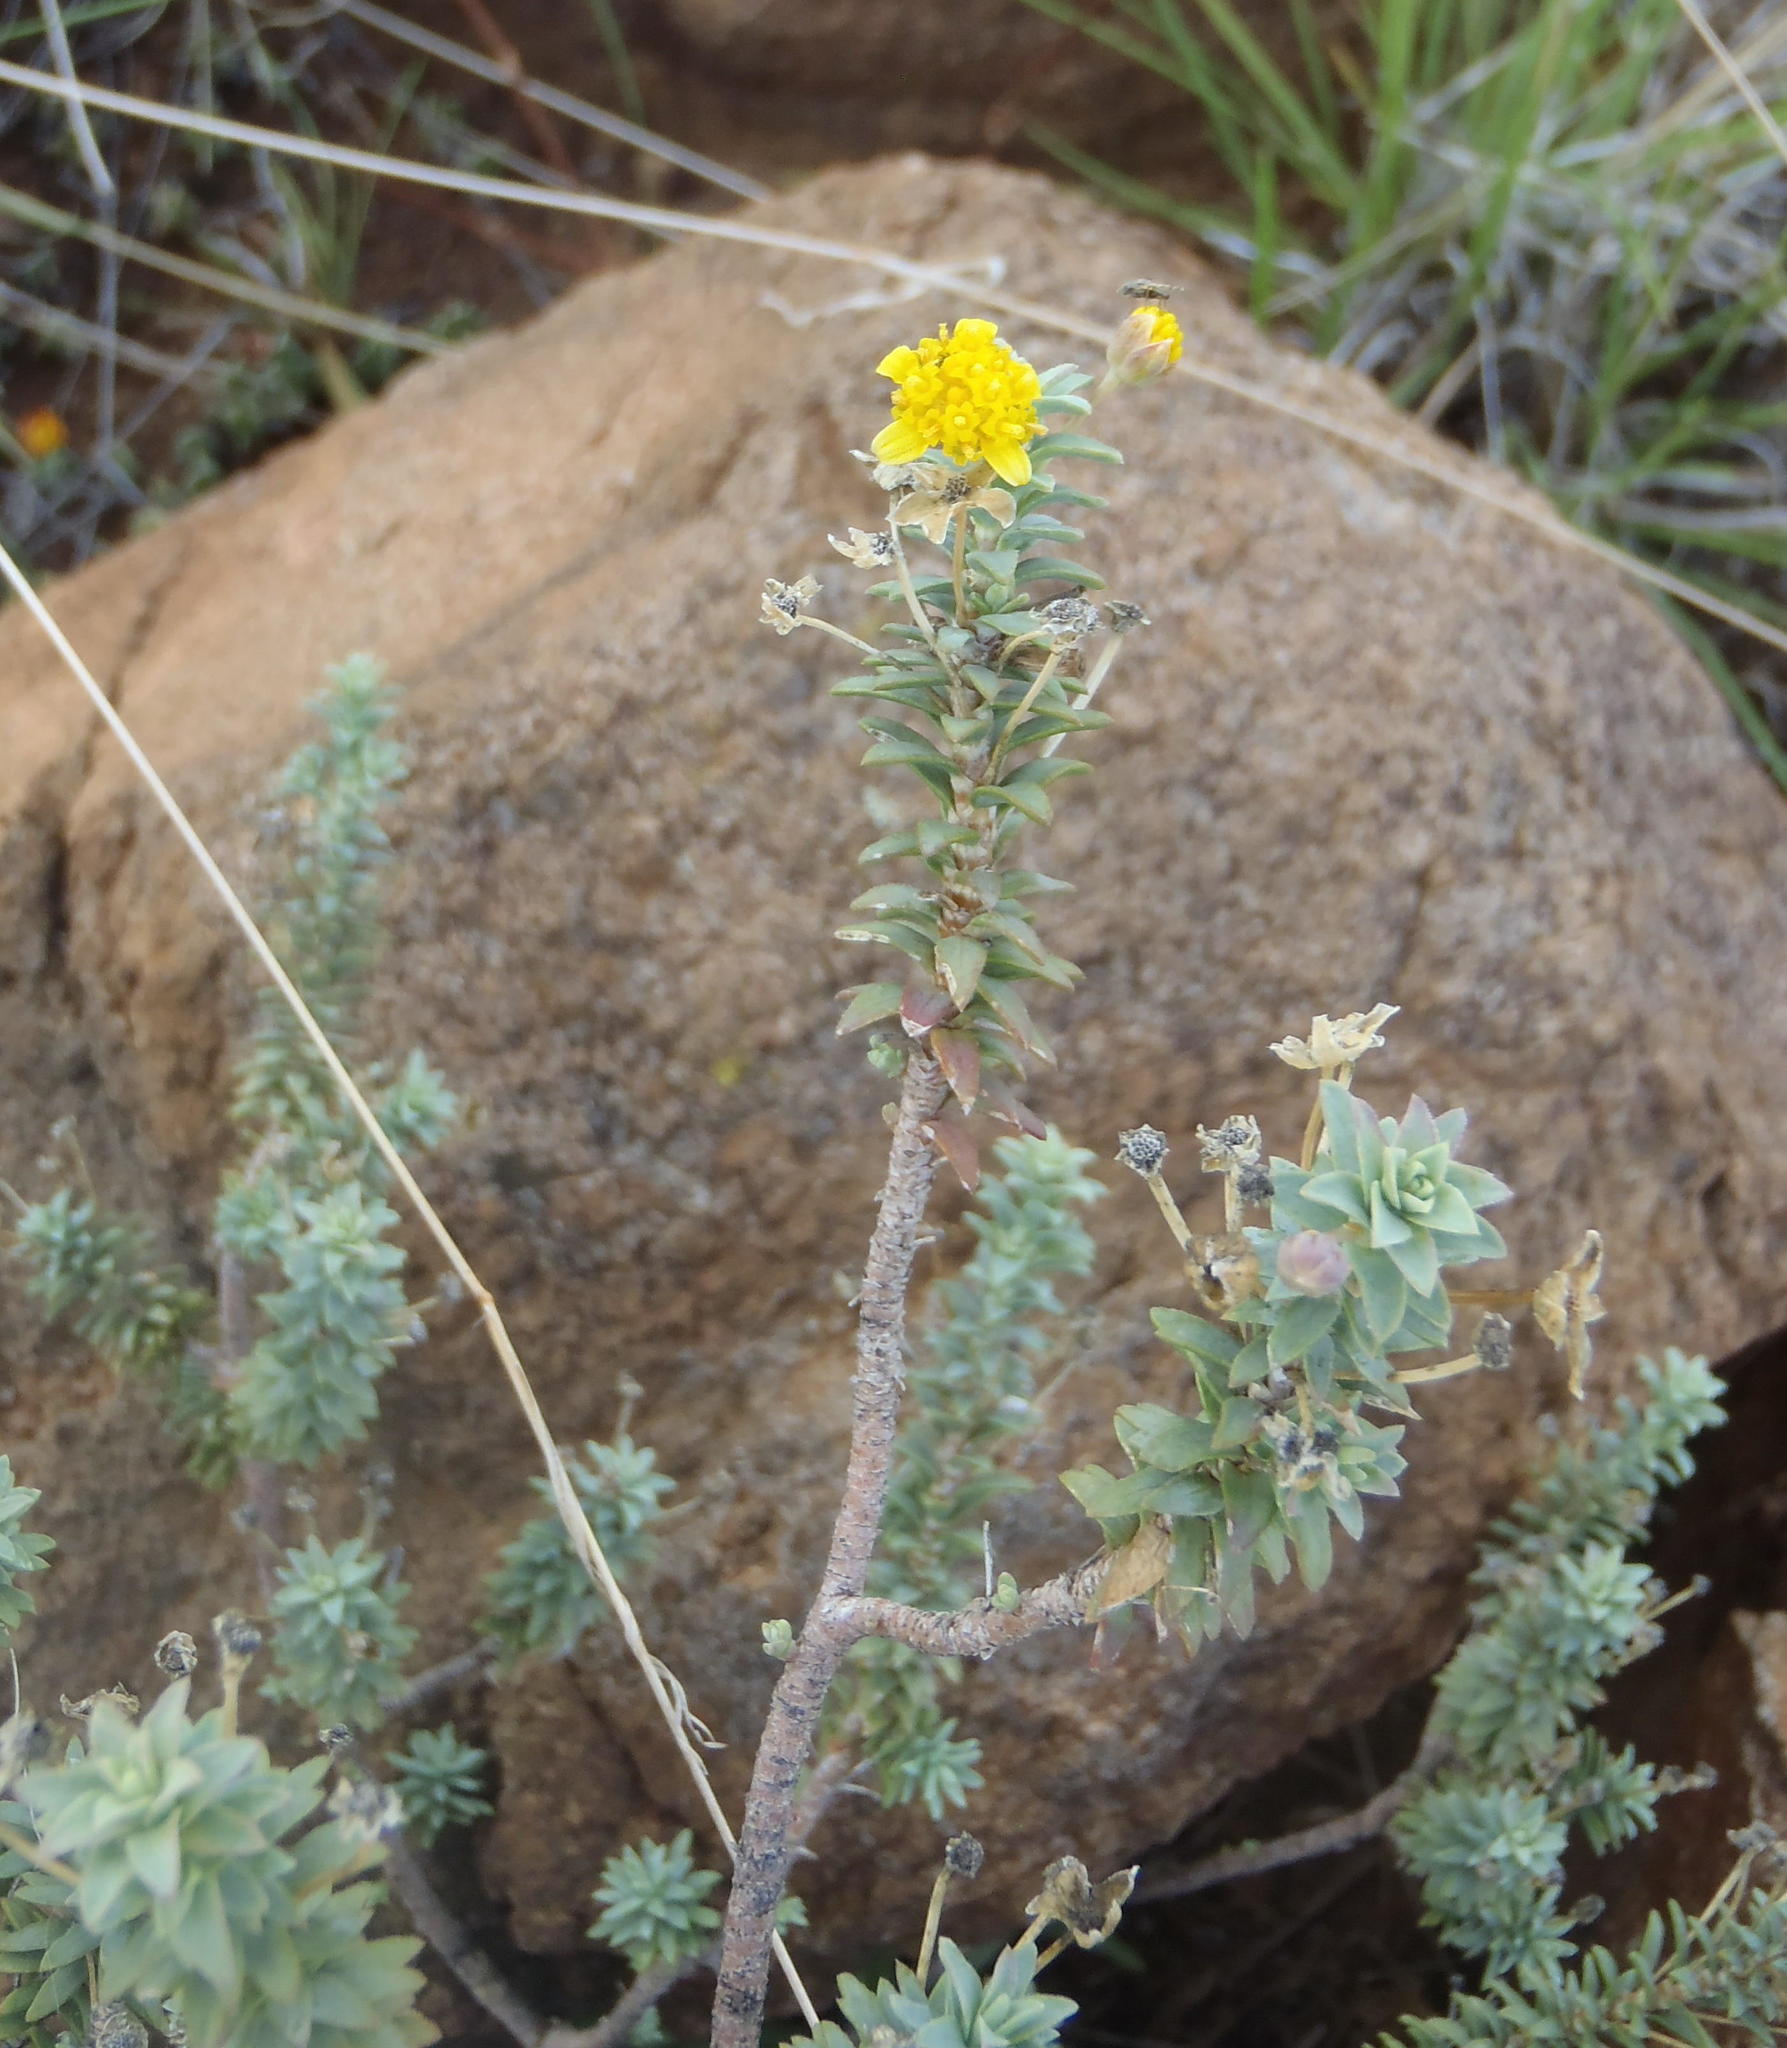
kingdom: Plantae
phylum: Tracheophyta
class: Magnoliopsida
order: Asterales
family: Asteraceae
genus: Euryops
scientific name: Euryops imbricatus
